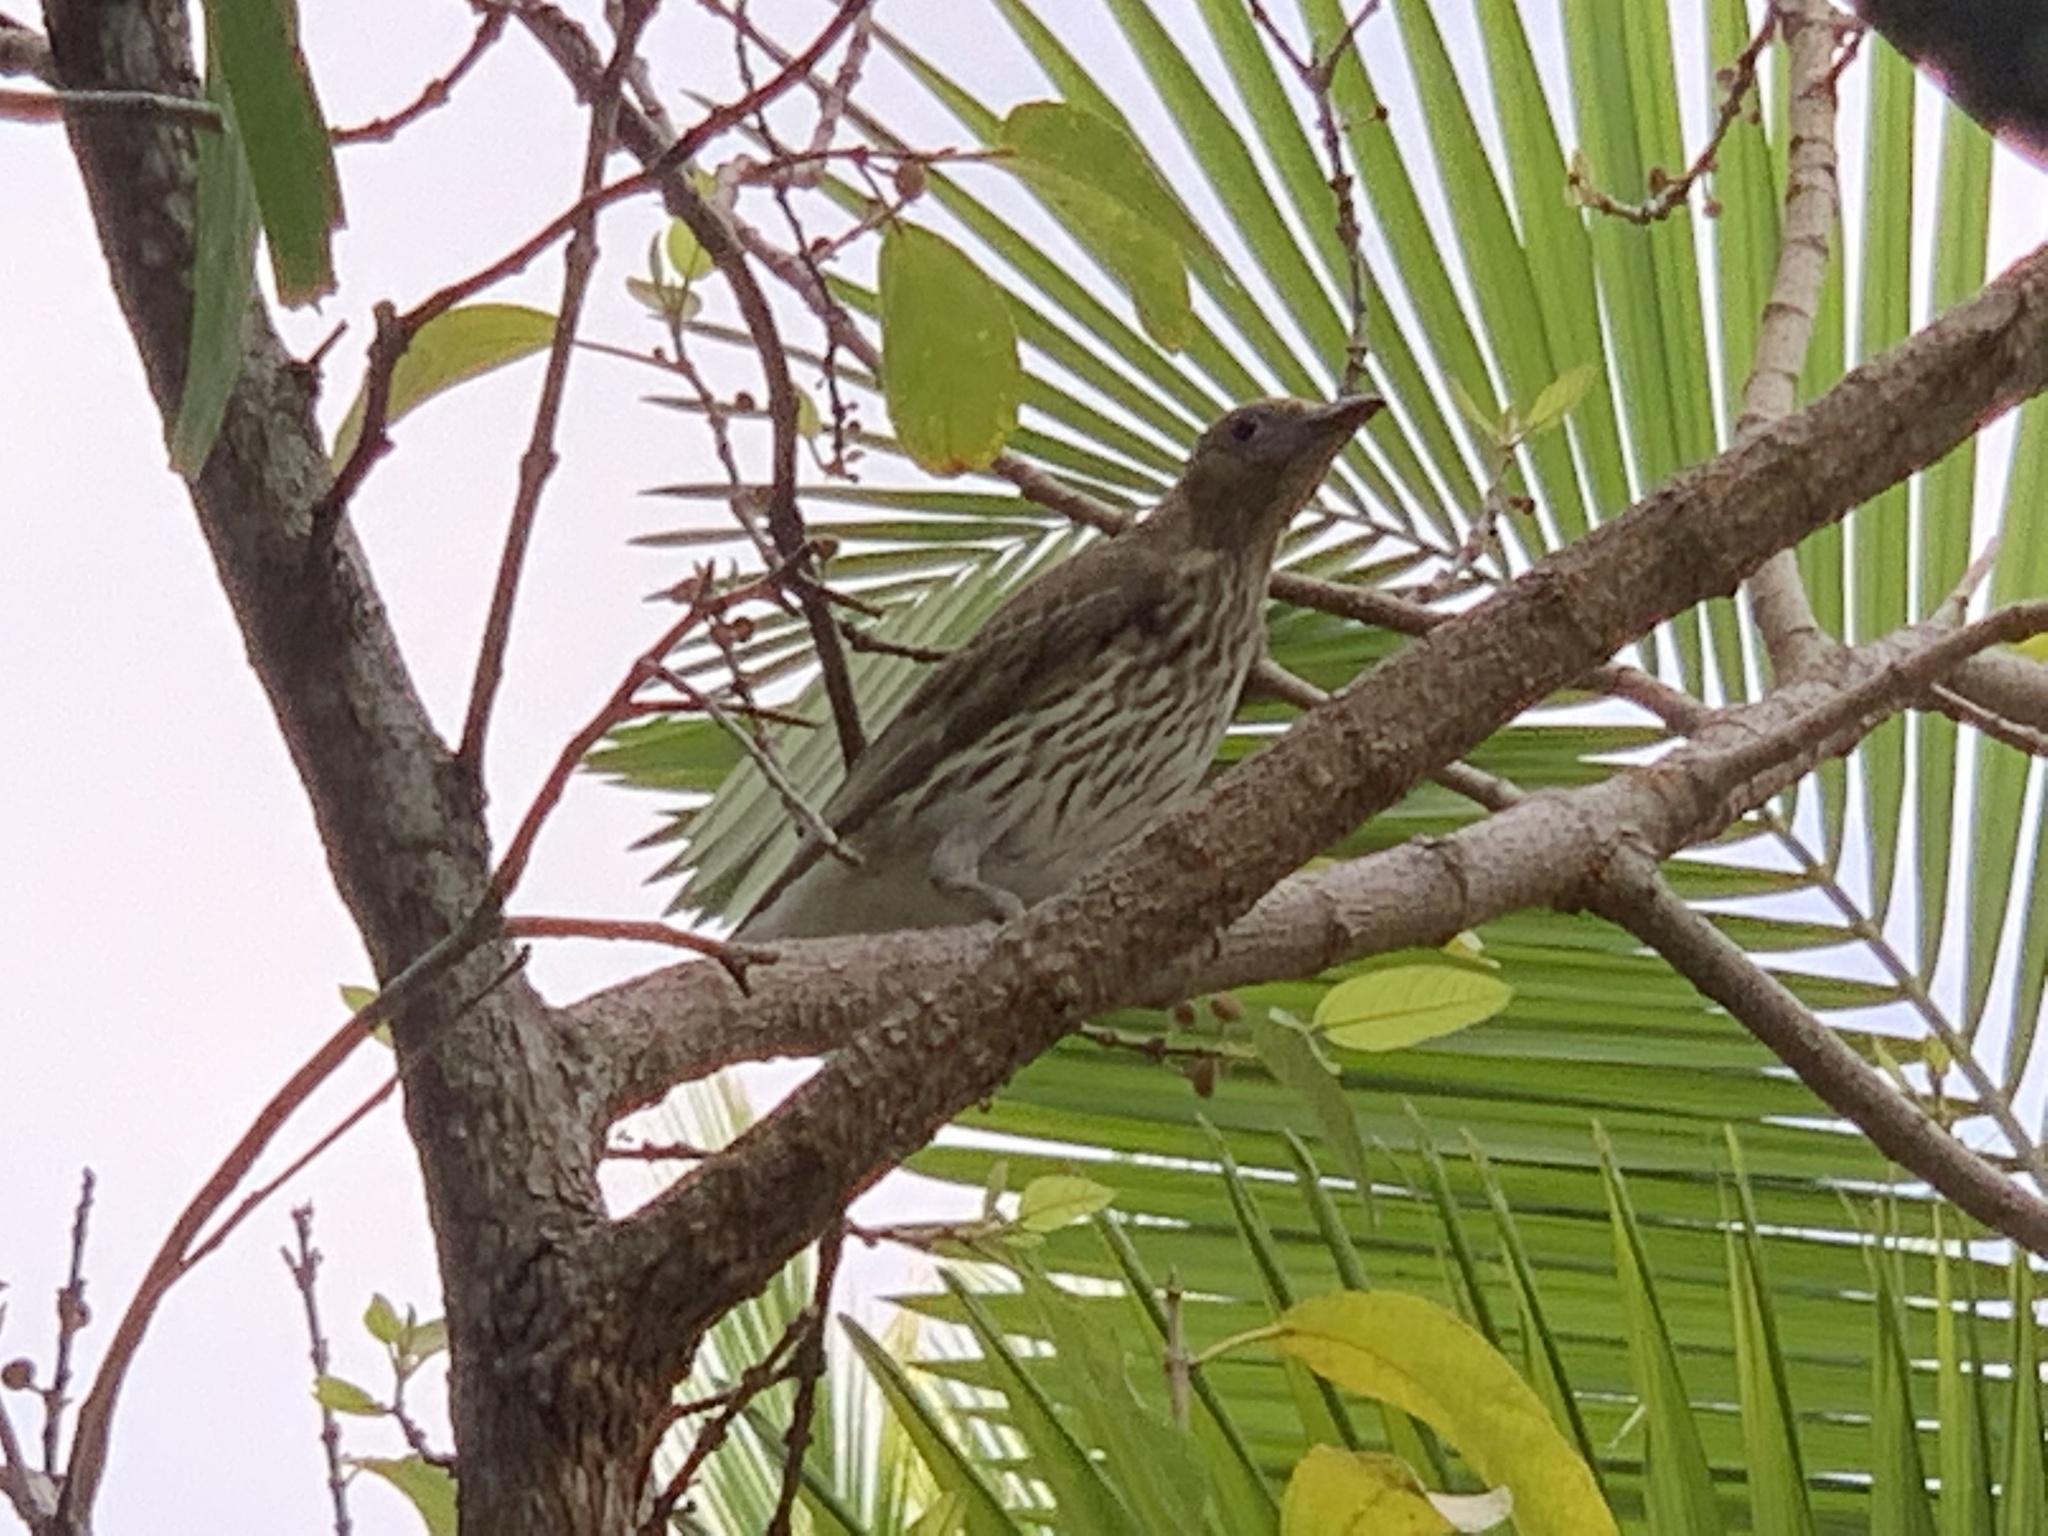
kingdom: Animalia
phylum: Chordata
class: Aves
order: Passeriformes
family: Oriolidae
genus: Sphecotheres
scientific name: Sphecotheres vieilloti
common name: Australasian figbird
